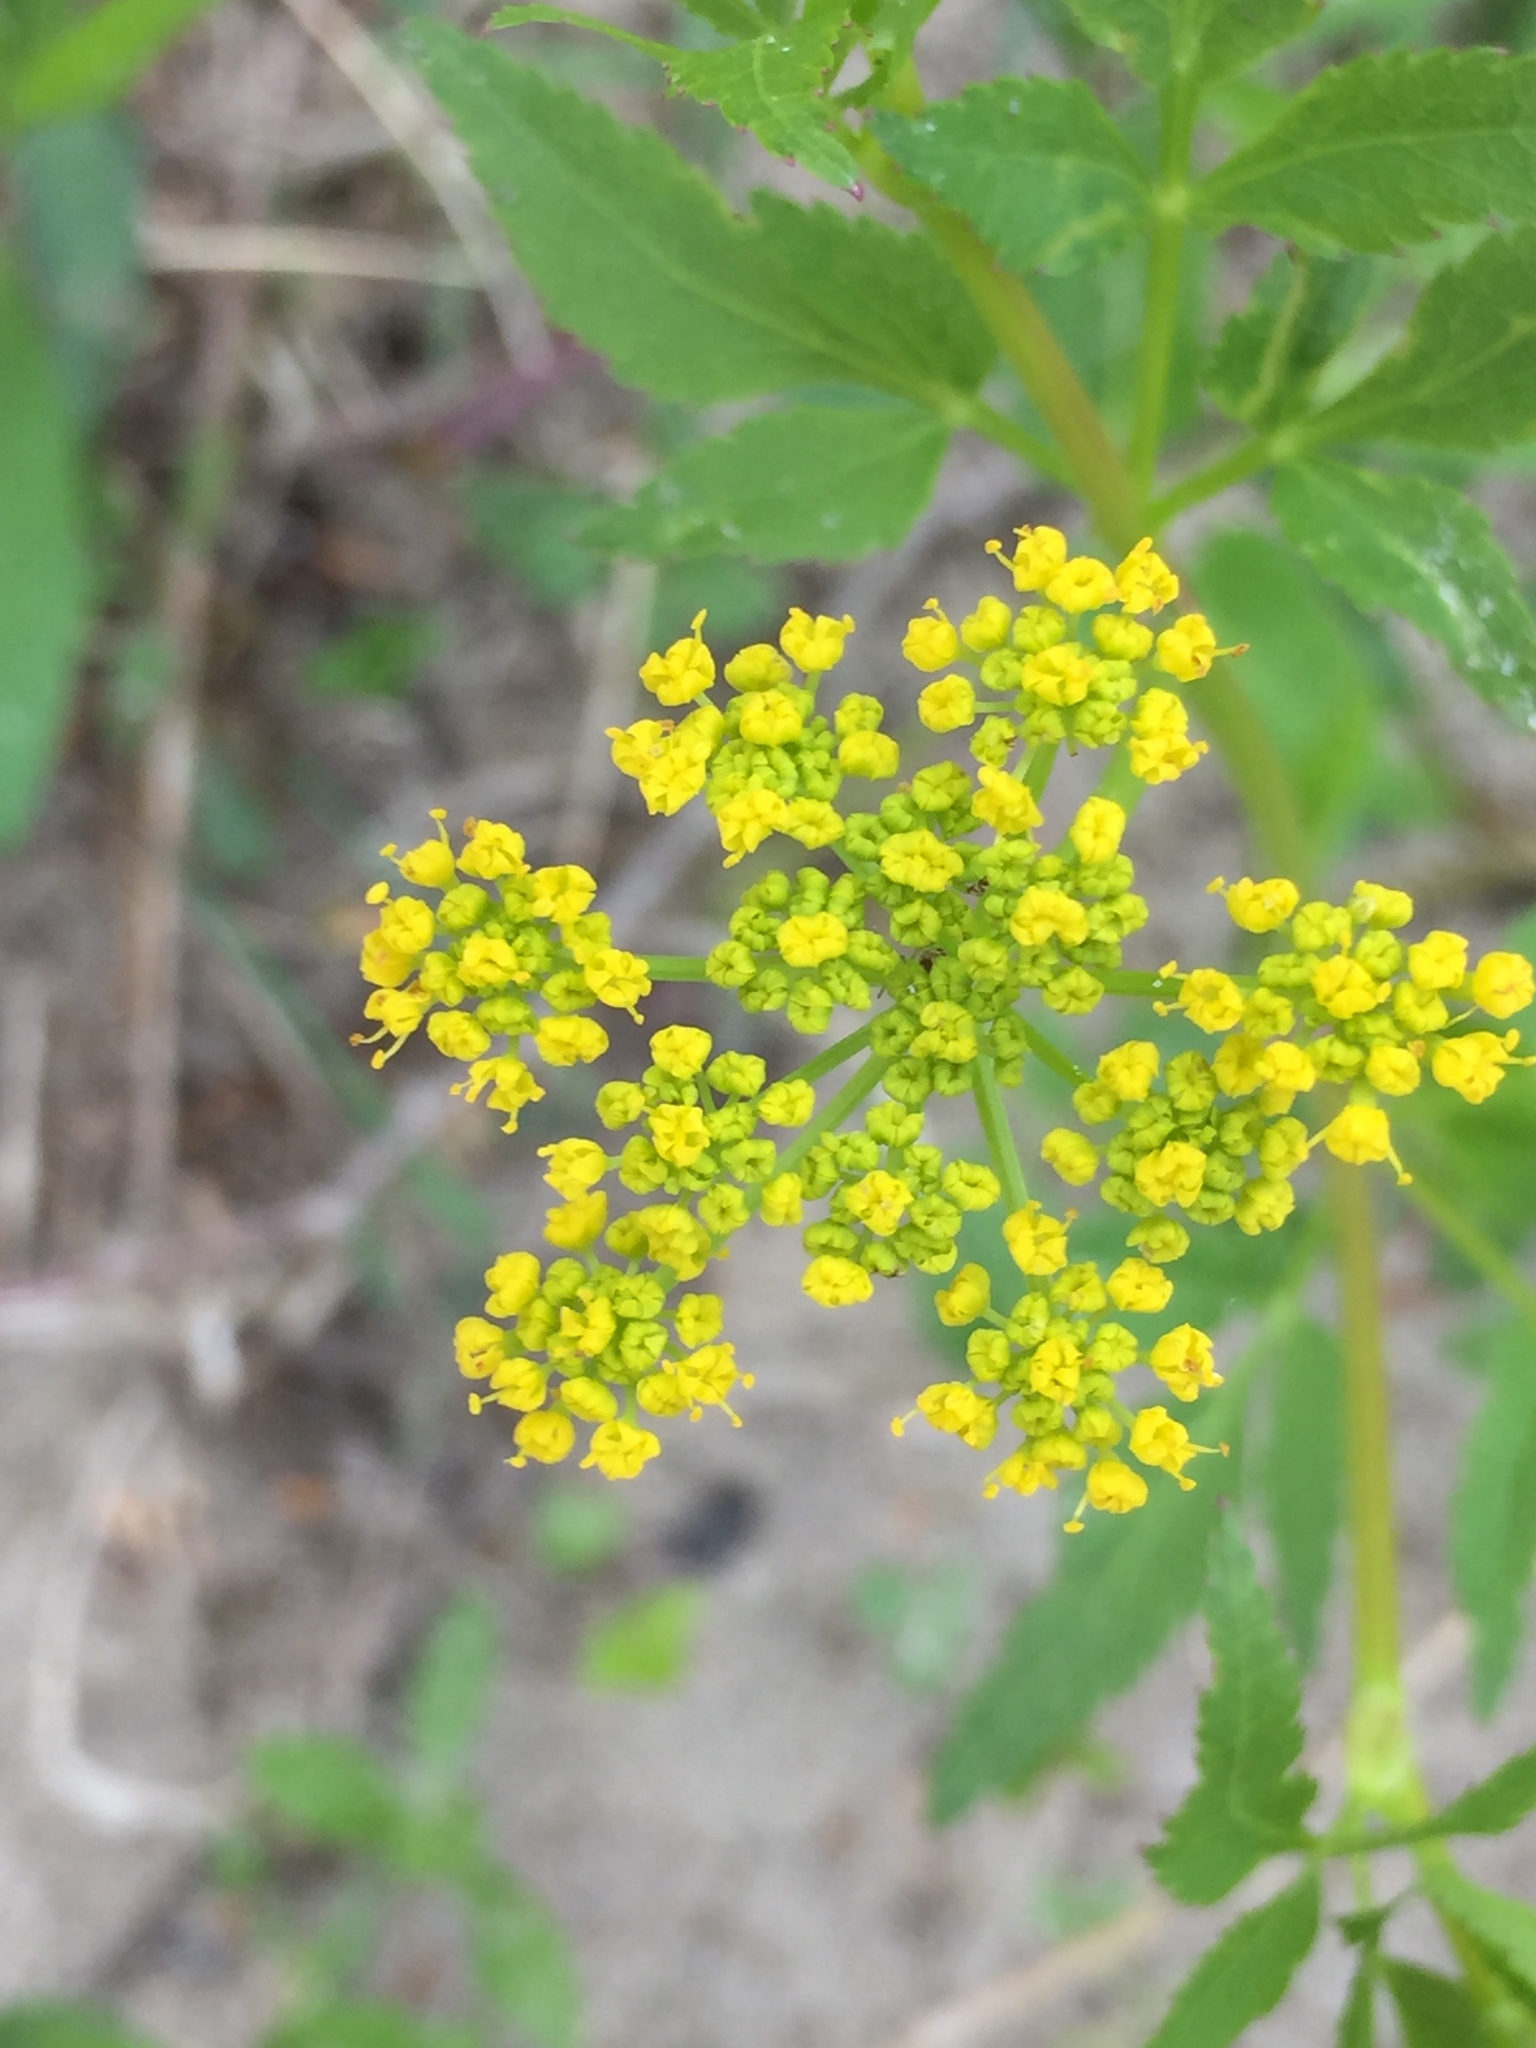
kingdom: Plantae
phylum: Tracheophyta
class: Magnoliopsida
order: Apiales
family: Apiaceae
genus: Zizia
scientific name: Zizia aurea
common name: Golden alexanders
